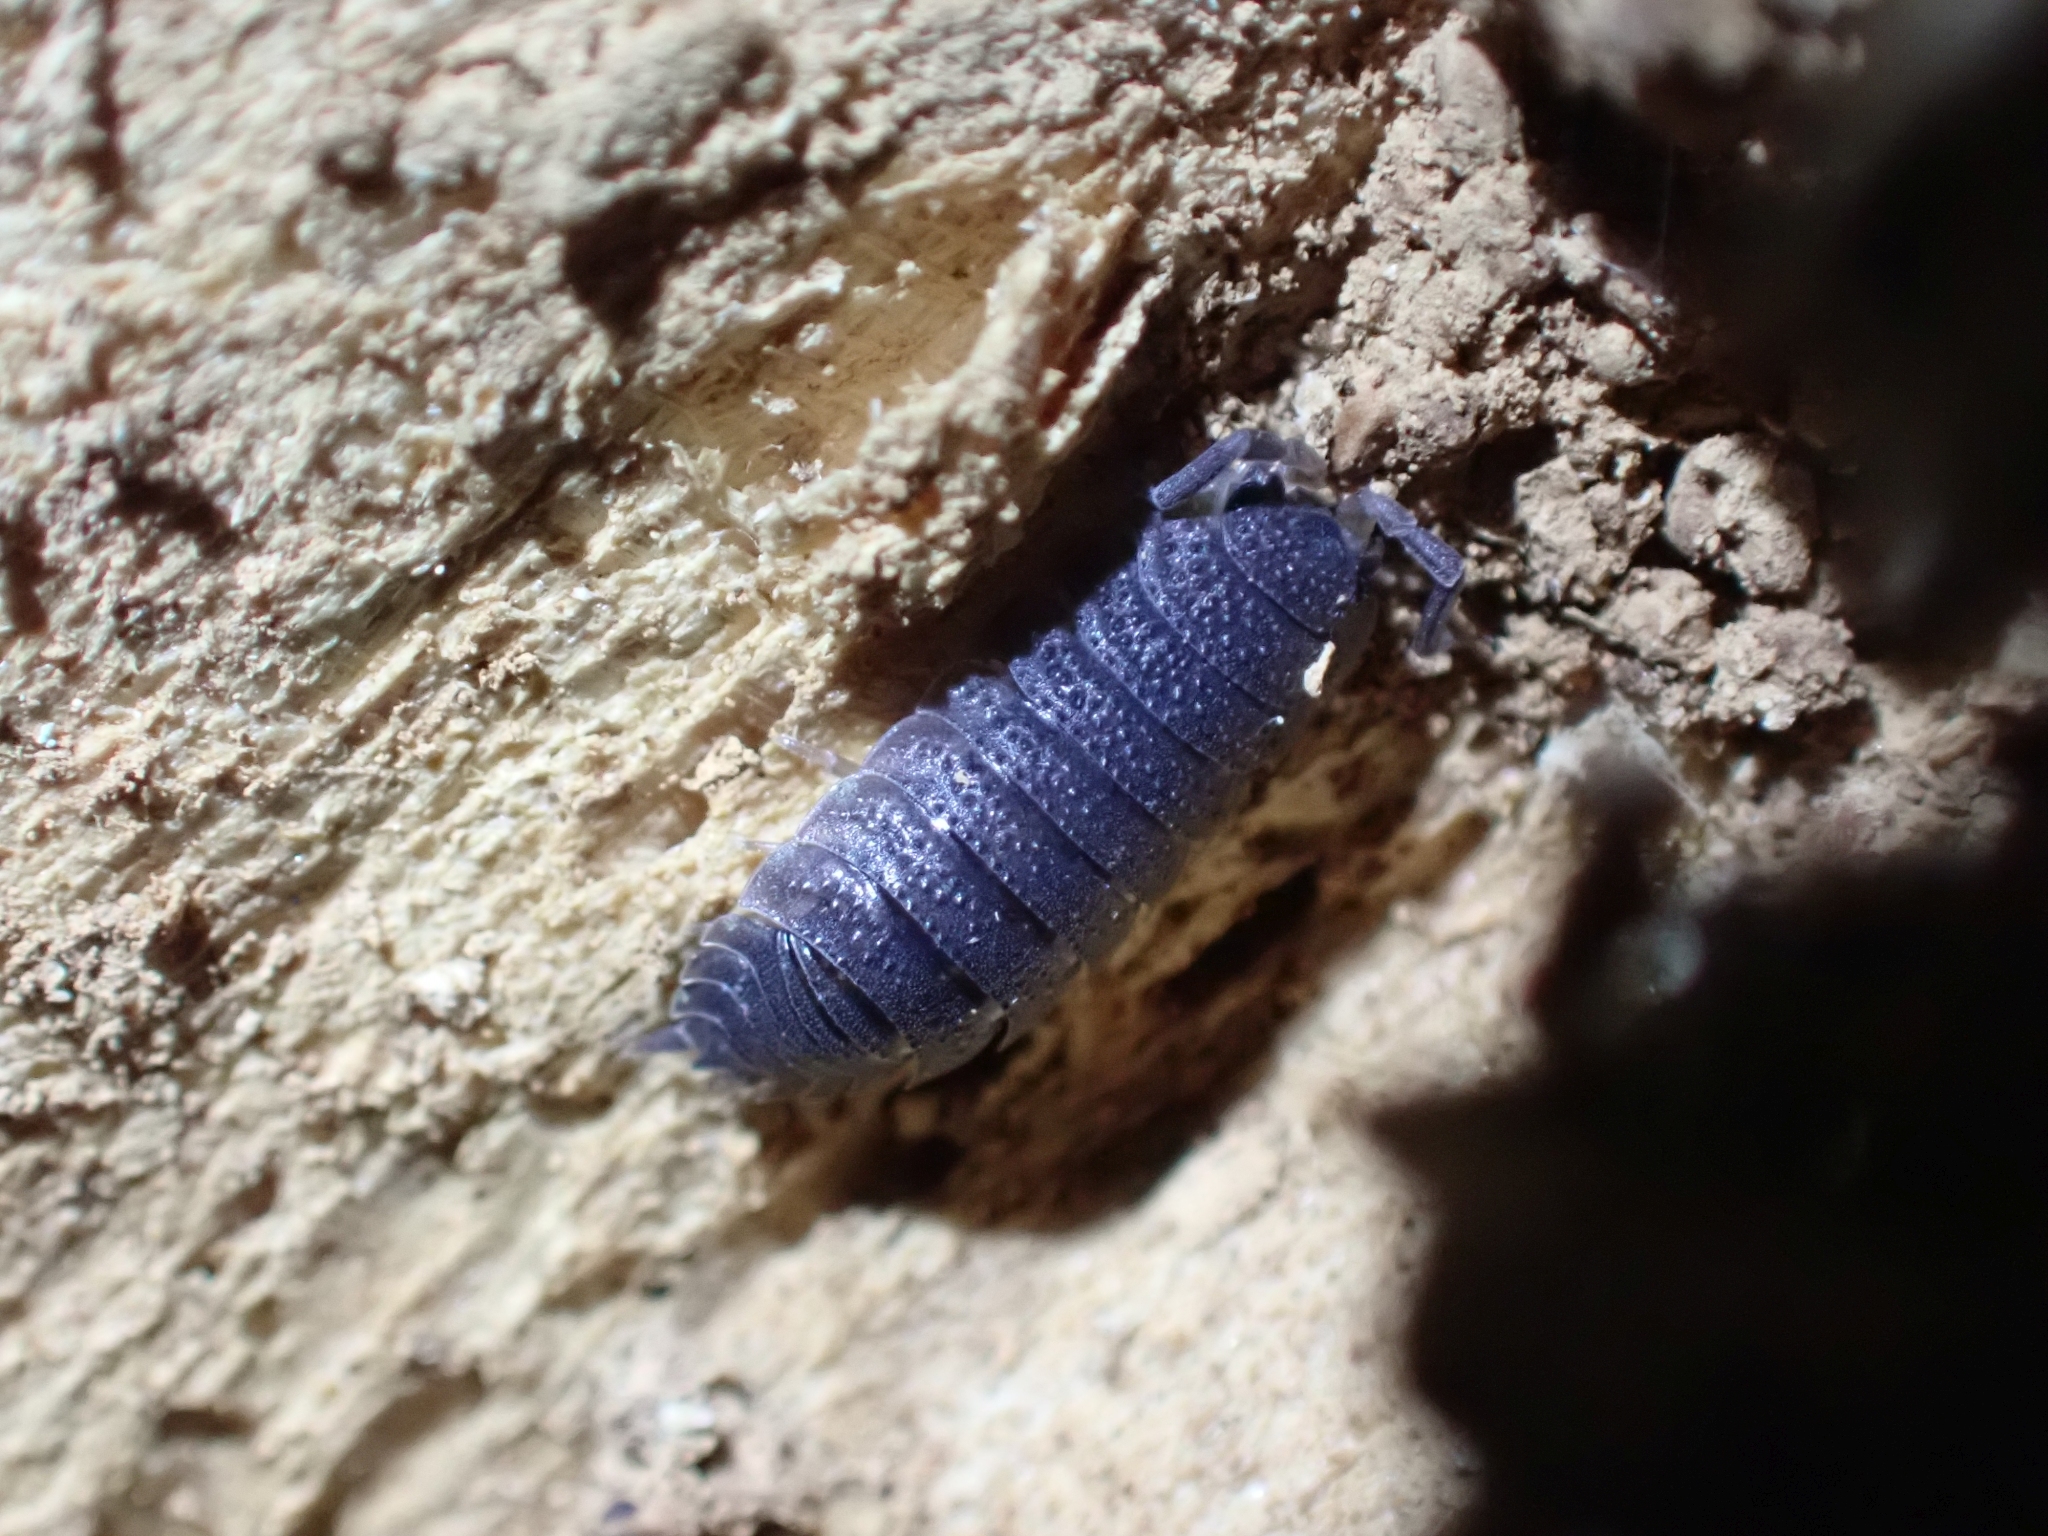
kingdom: Animalia
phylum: Arthropoda
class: Malacostraca
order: Isopoda
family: Porcellionidae
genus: Porcellio
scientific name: Porcellio scaber
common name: Common rough woodlouse
